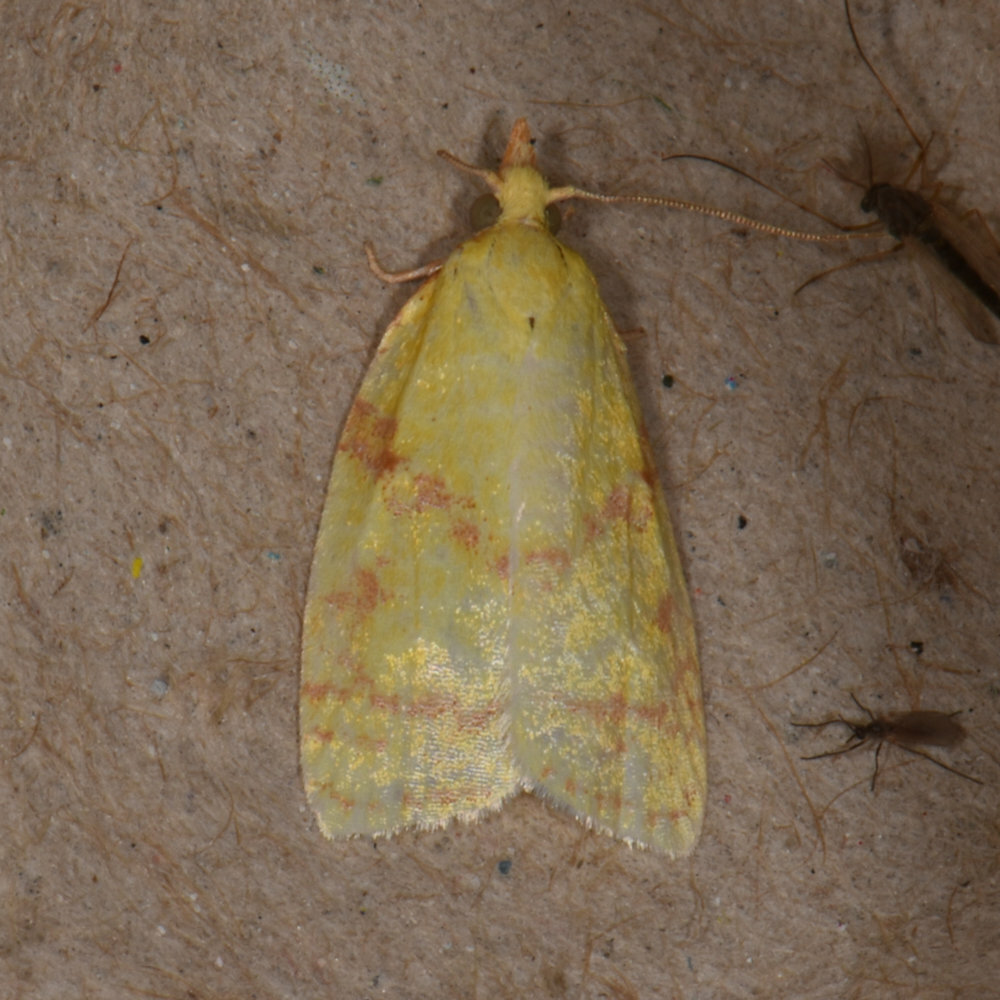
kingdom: Animalia
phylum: Arthropoda
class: Insecta
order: Lepidoptera
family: Tortricidae
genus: Cenopis
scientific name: Cenopis pettitana
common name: Maple-basswood leafroller moth
